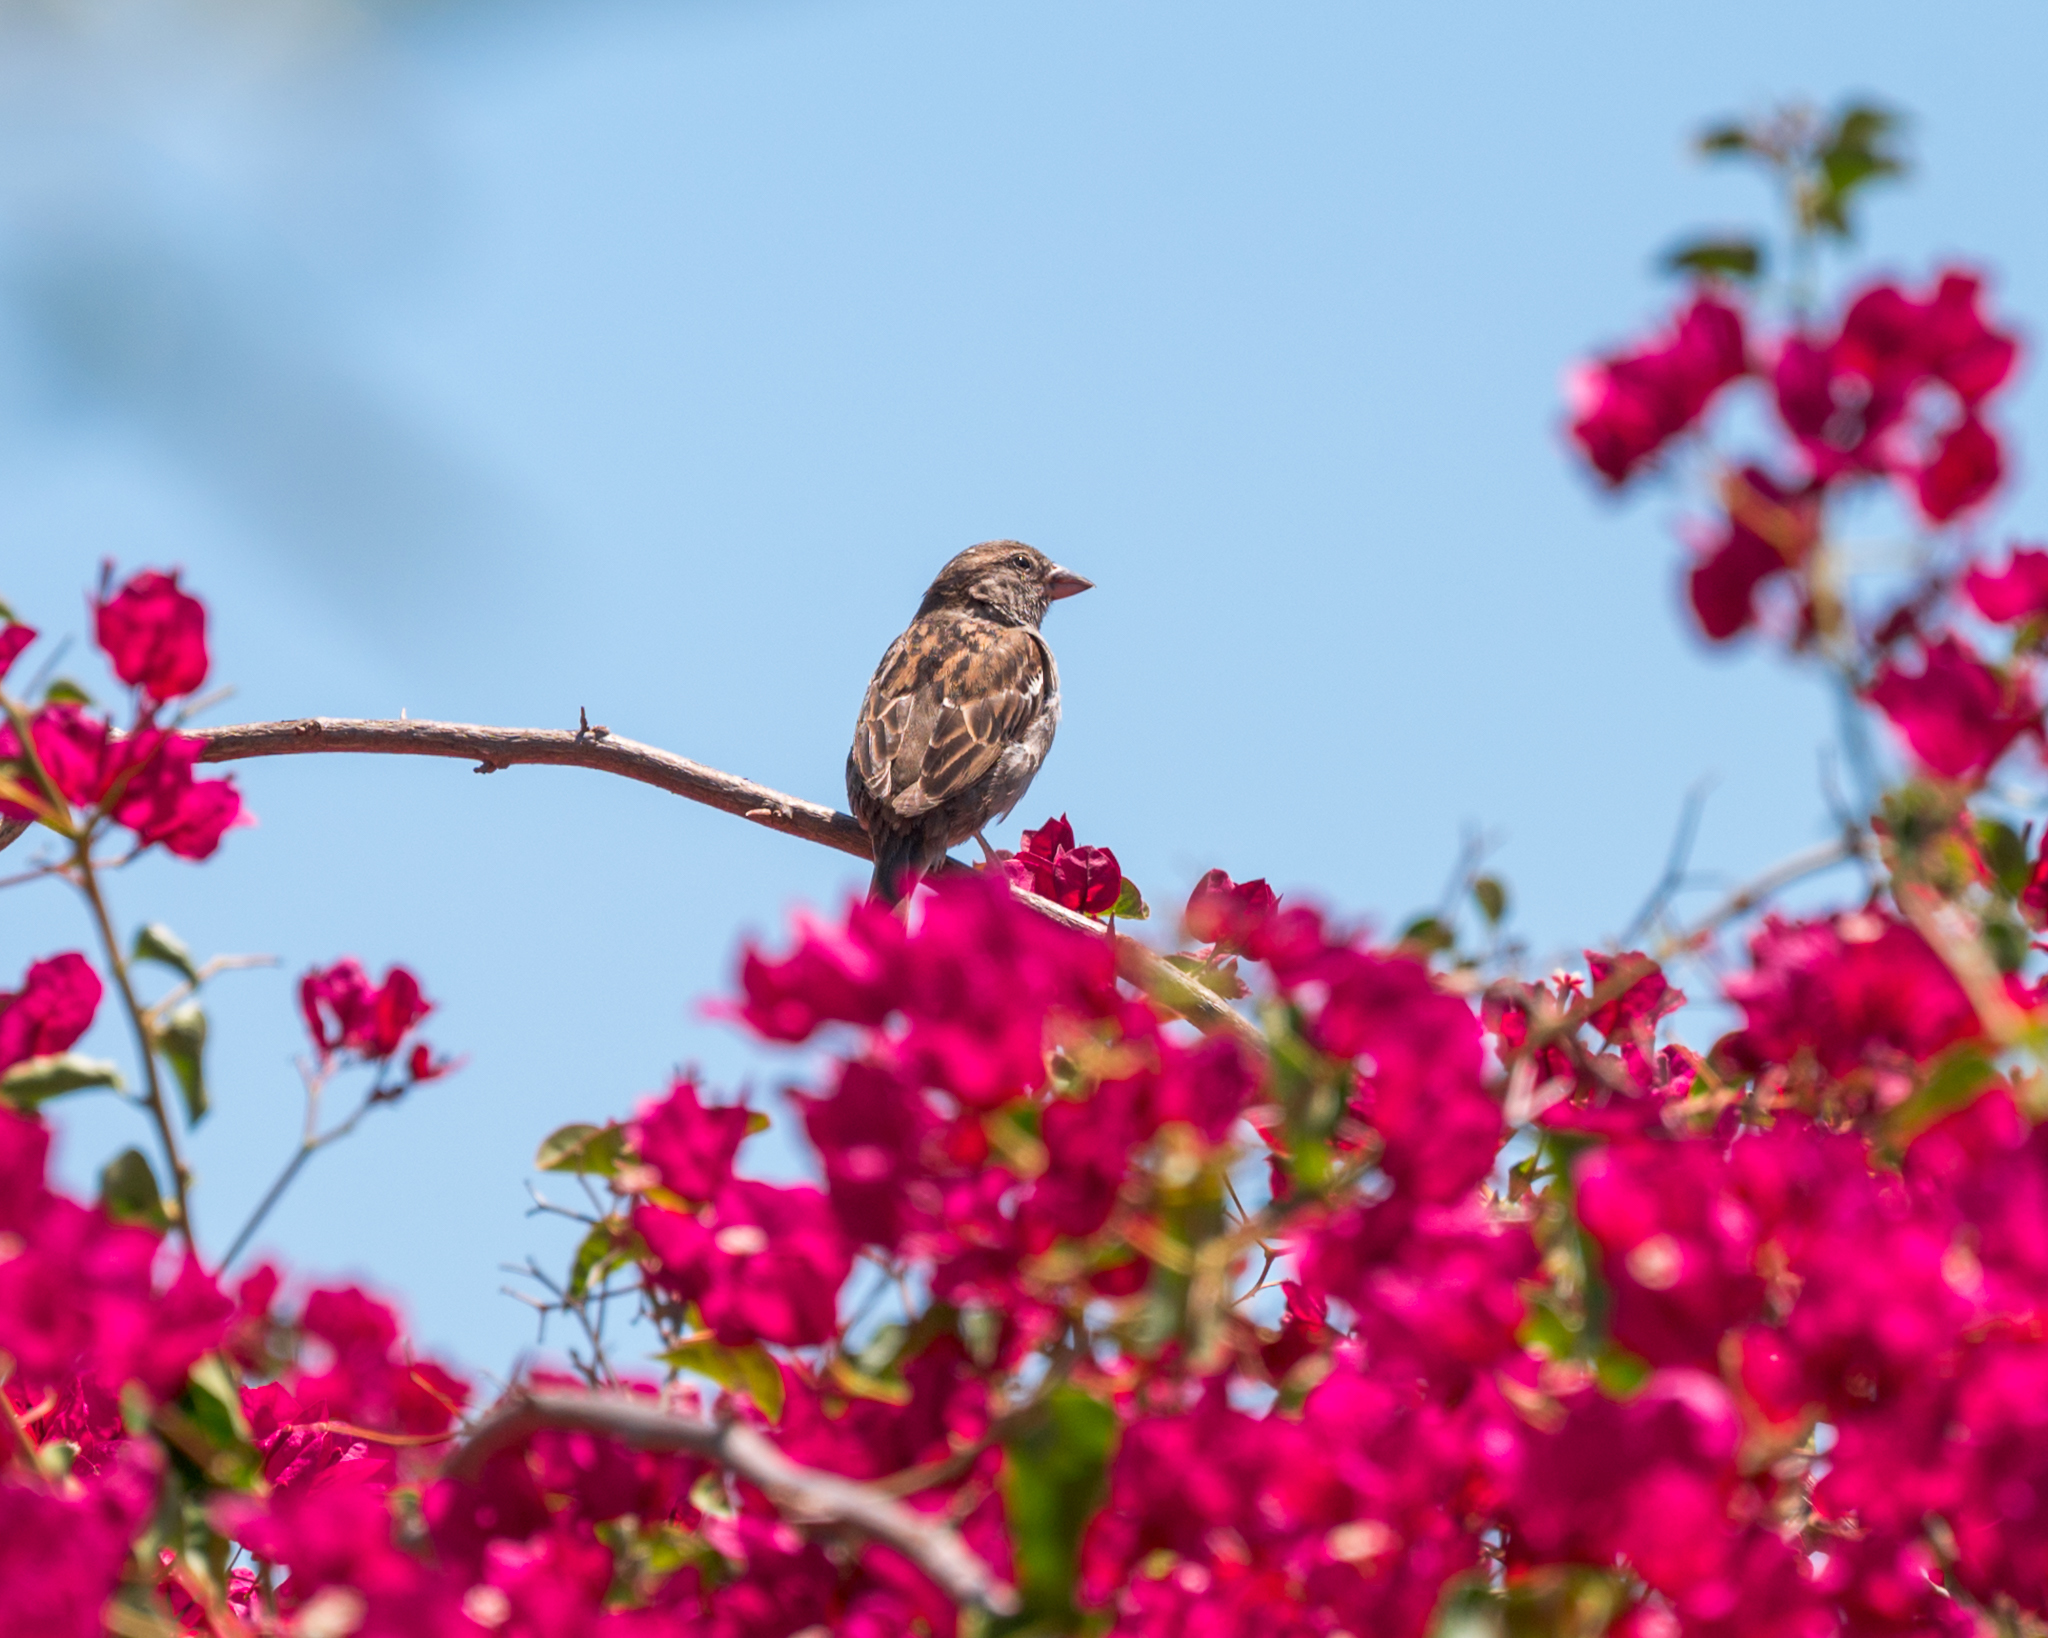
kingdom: Animalia
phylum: Chordata
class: Aves
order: Passeriformes
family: Passeridae
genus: Passer
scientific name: Passer domesticus
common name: House sparrow
